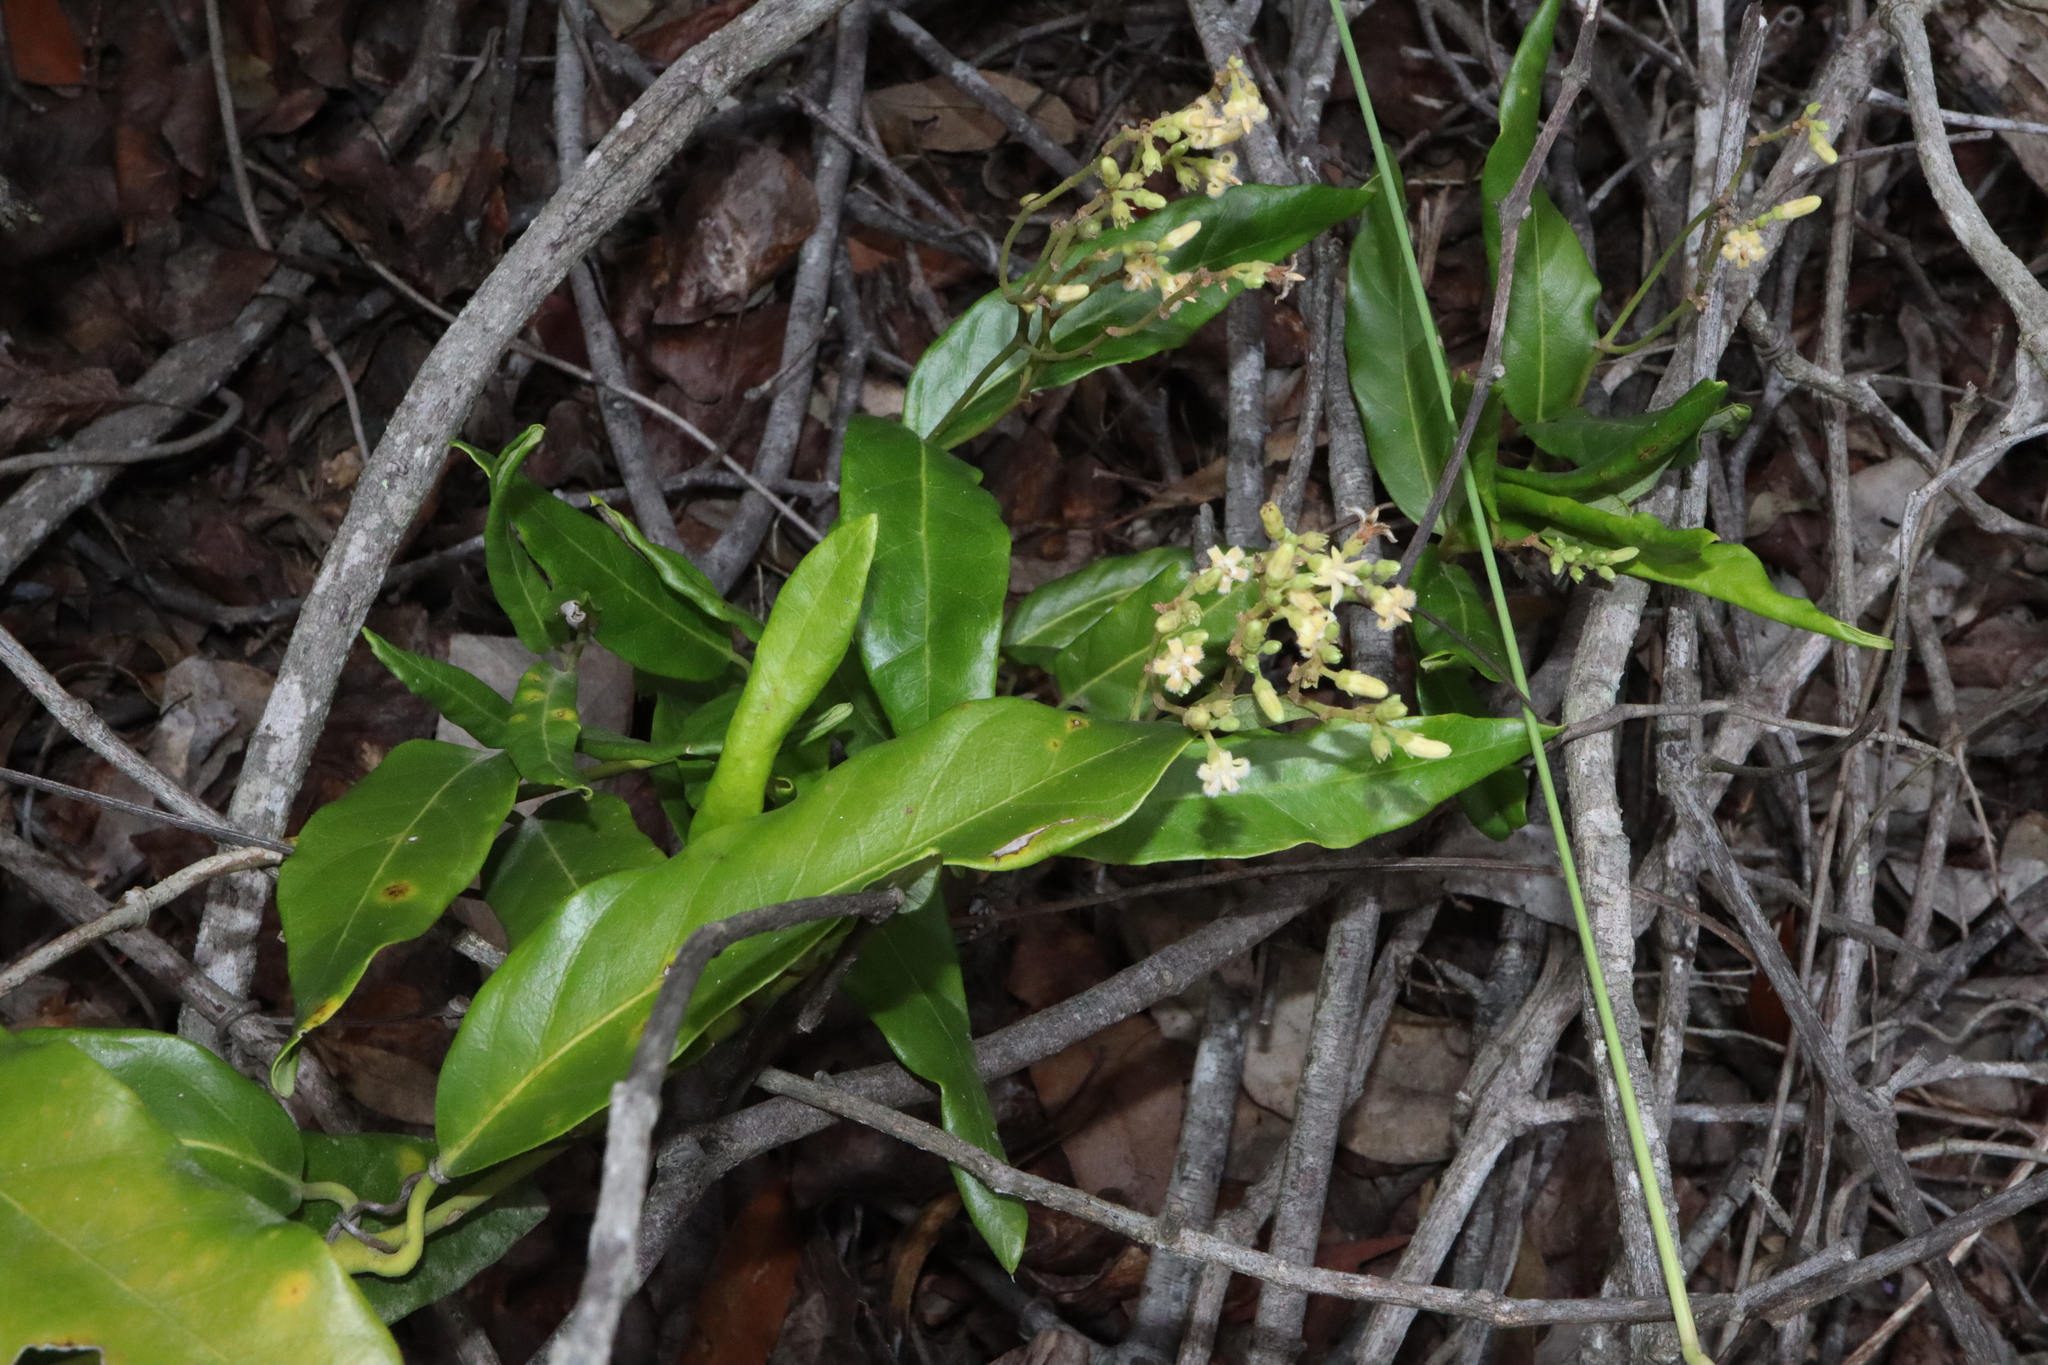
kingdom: Plantae
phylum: Tracheophyta
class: Magnoliopsida
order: Gentianales
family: Apocynaceae
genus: Parsonsia
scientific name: Parsonsia straminea
